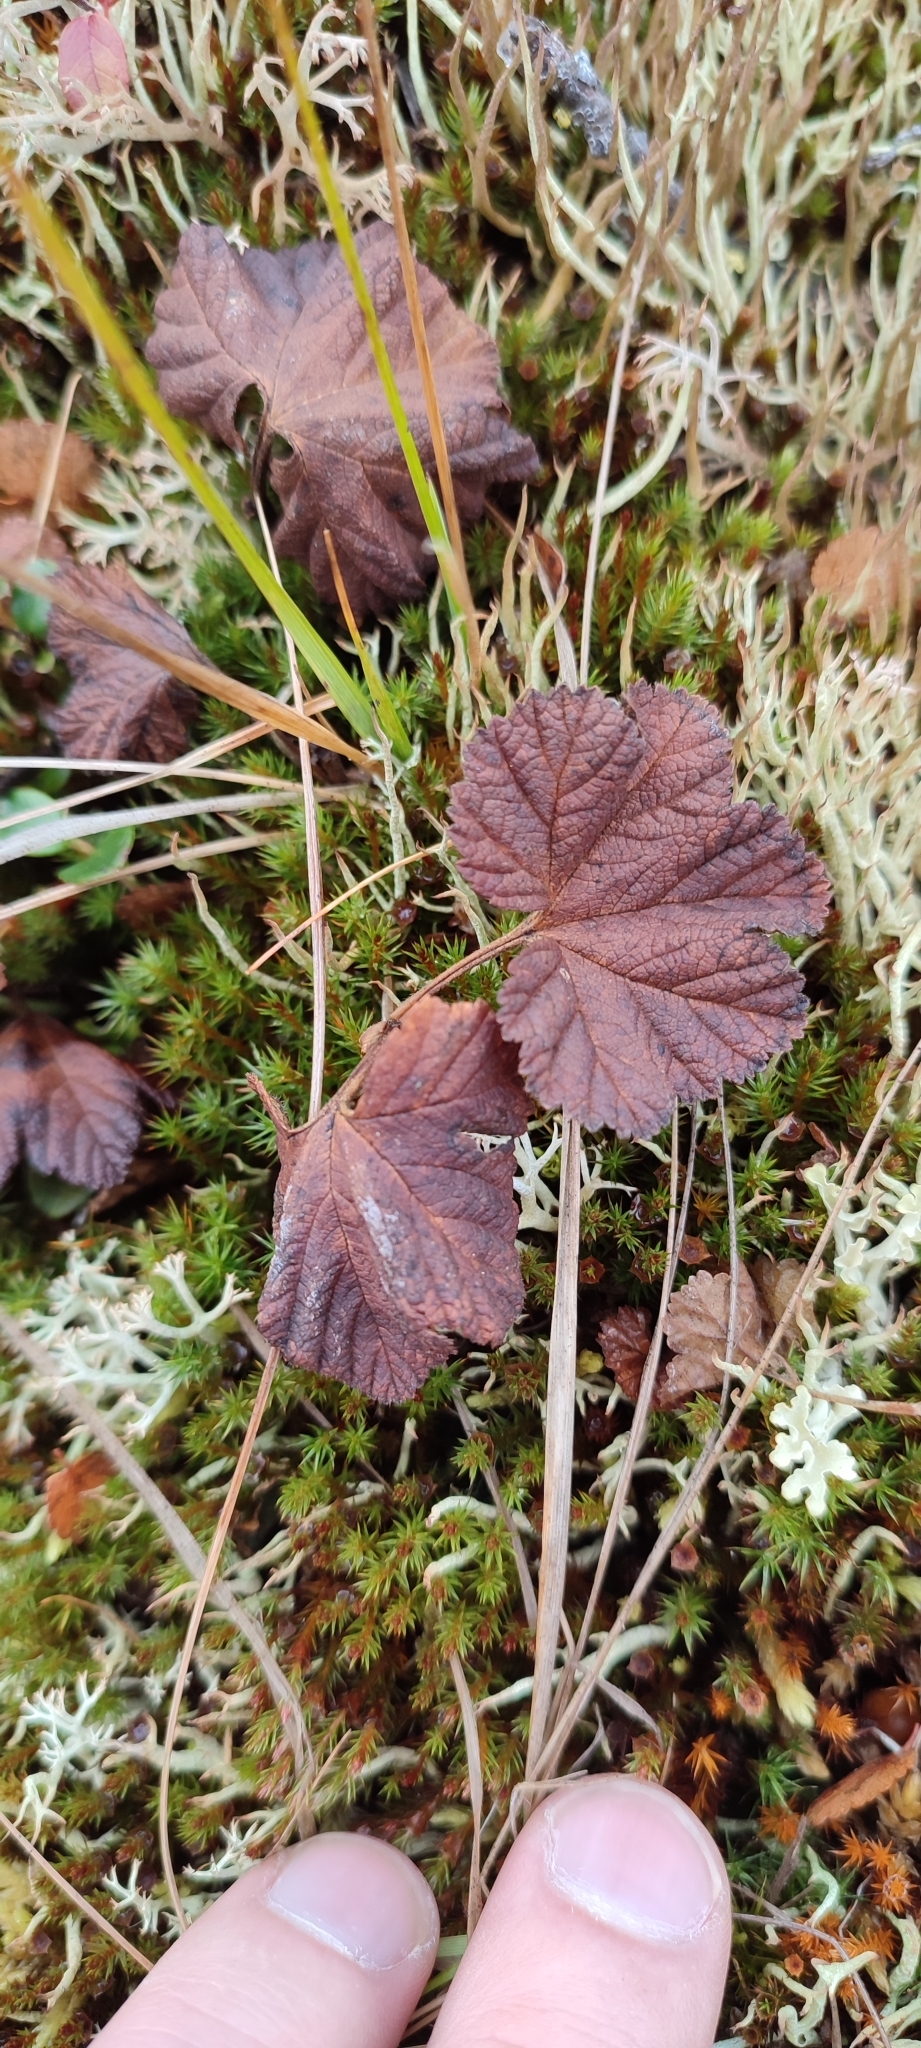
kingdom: Plantae
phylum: Tracheophyta
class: Magnoliopsida
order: Rosales
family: Rosaceae
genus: Rubus
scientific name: Rubus chamaemorus
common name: Cloudberry
